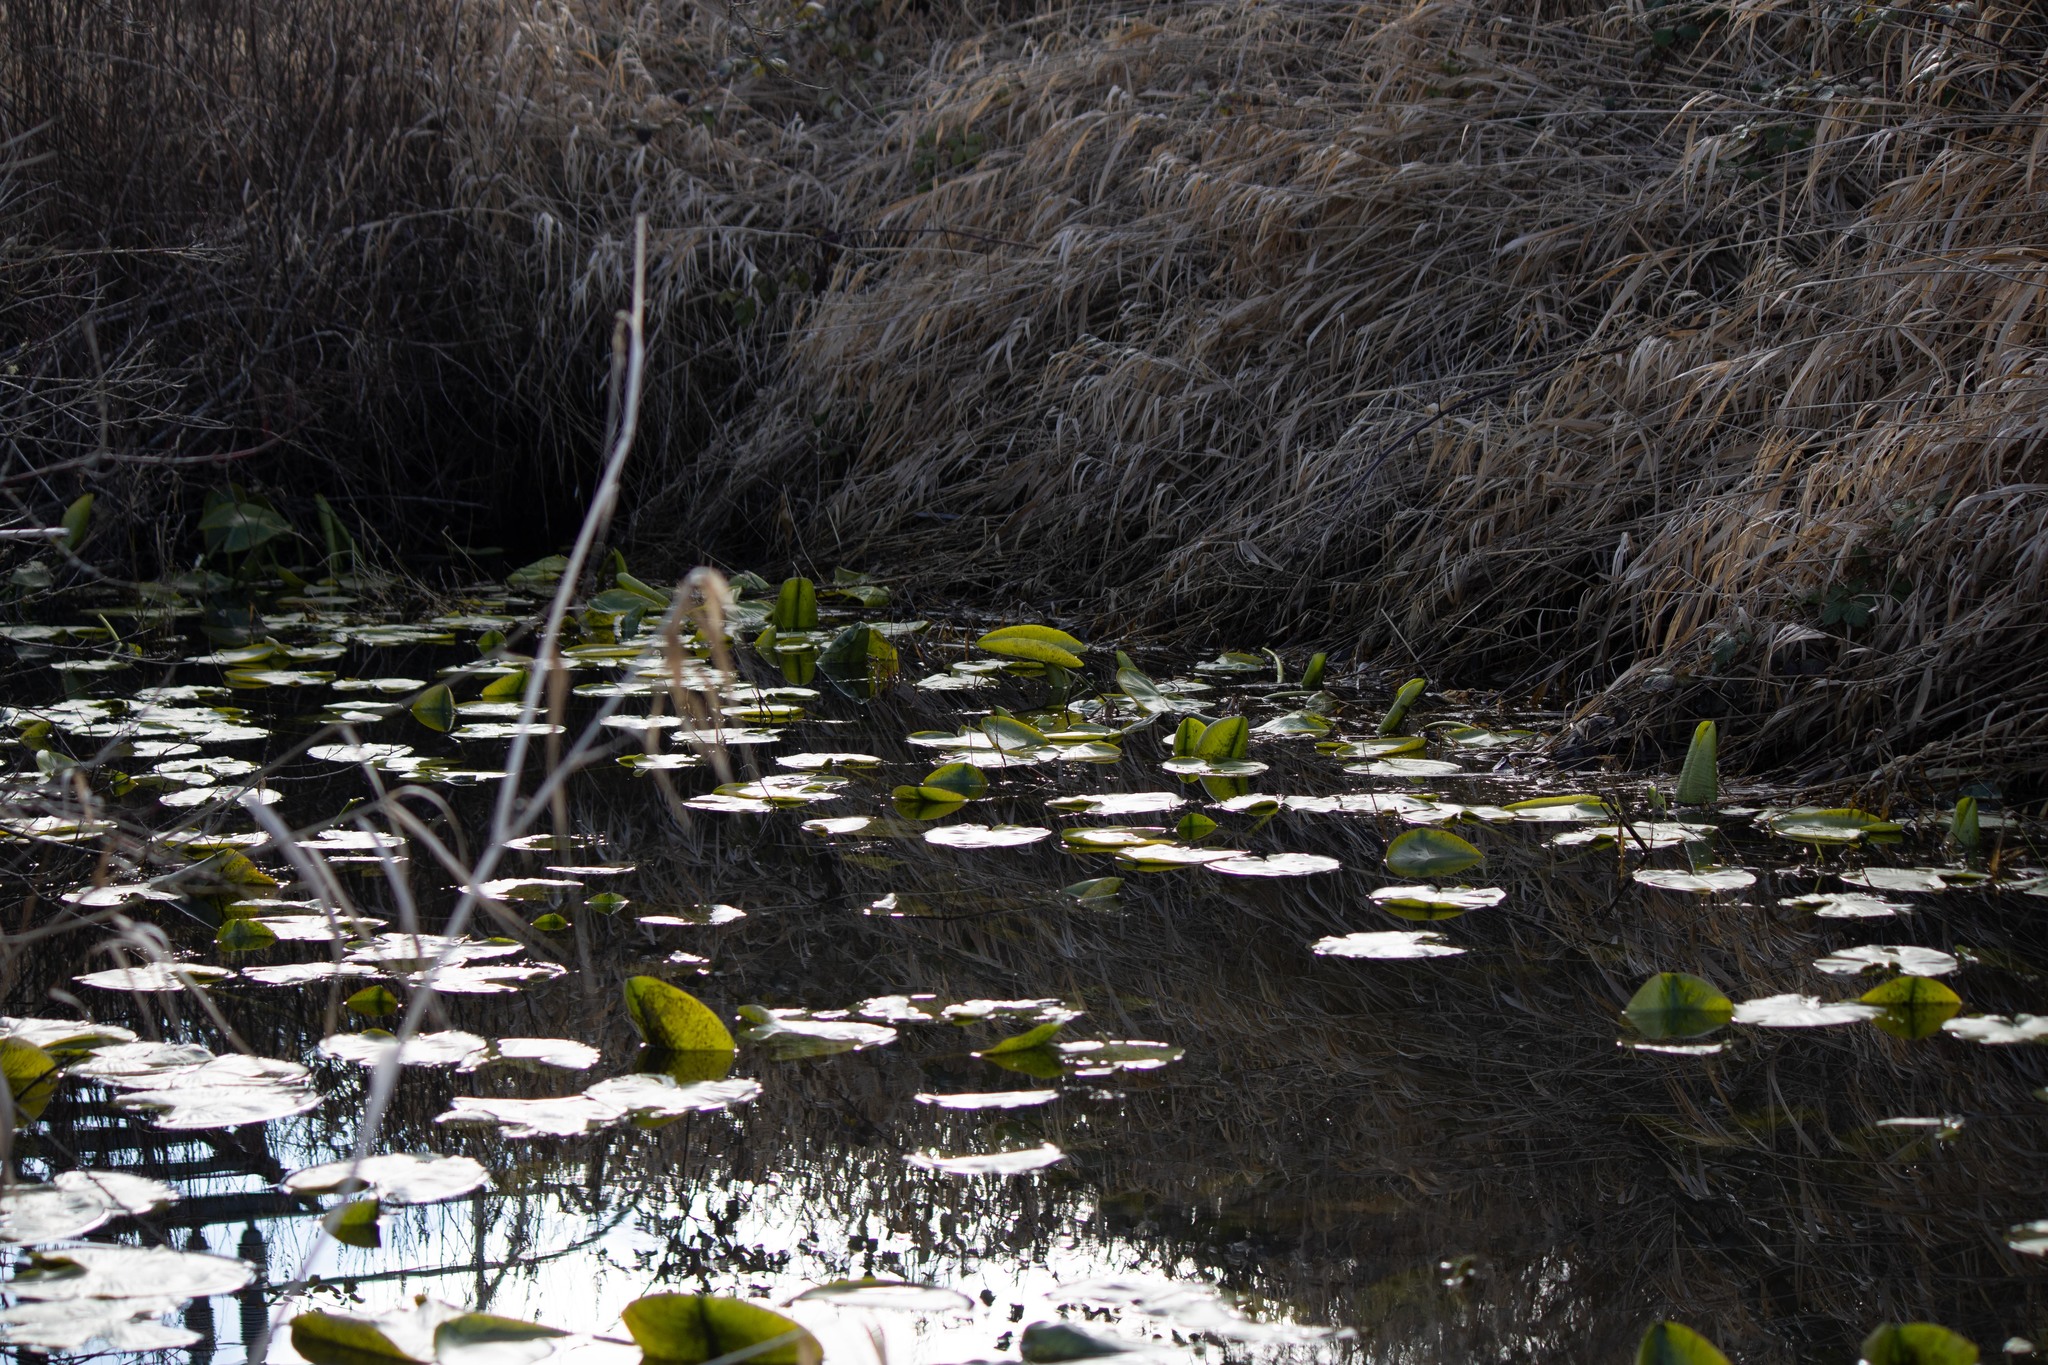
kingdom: Plantae
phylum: Tracheophyta
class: Magnoliopsida
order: Nymphaeales
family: Nymphaeaceae
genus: Nuphar
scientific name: Nuphar polysepala
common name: Rocky mountain cow-lily
